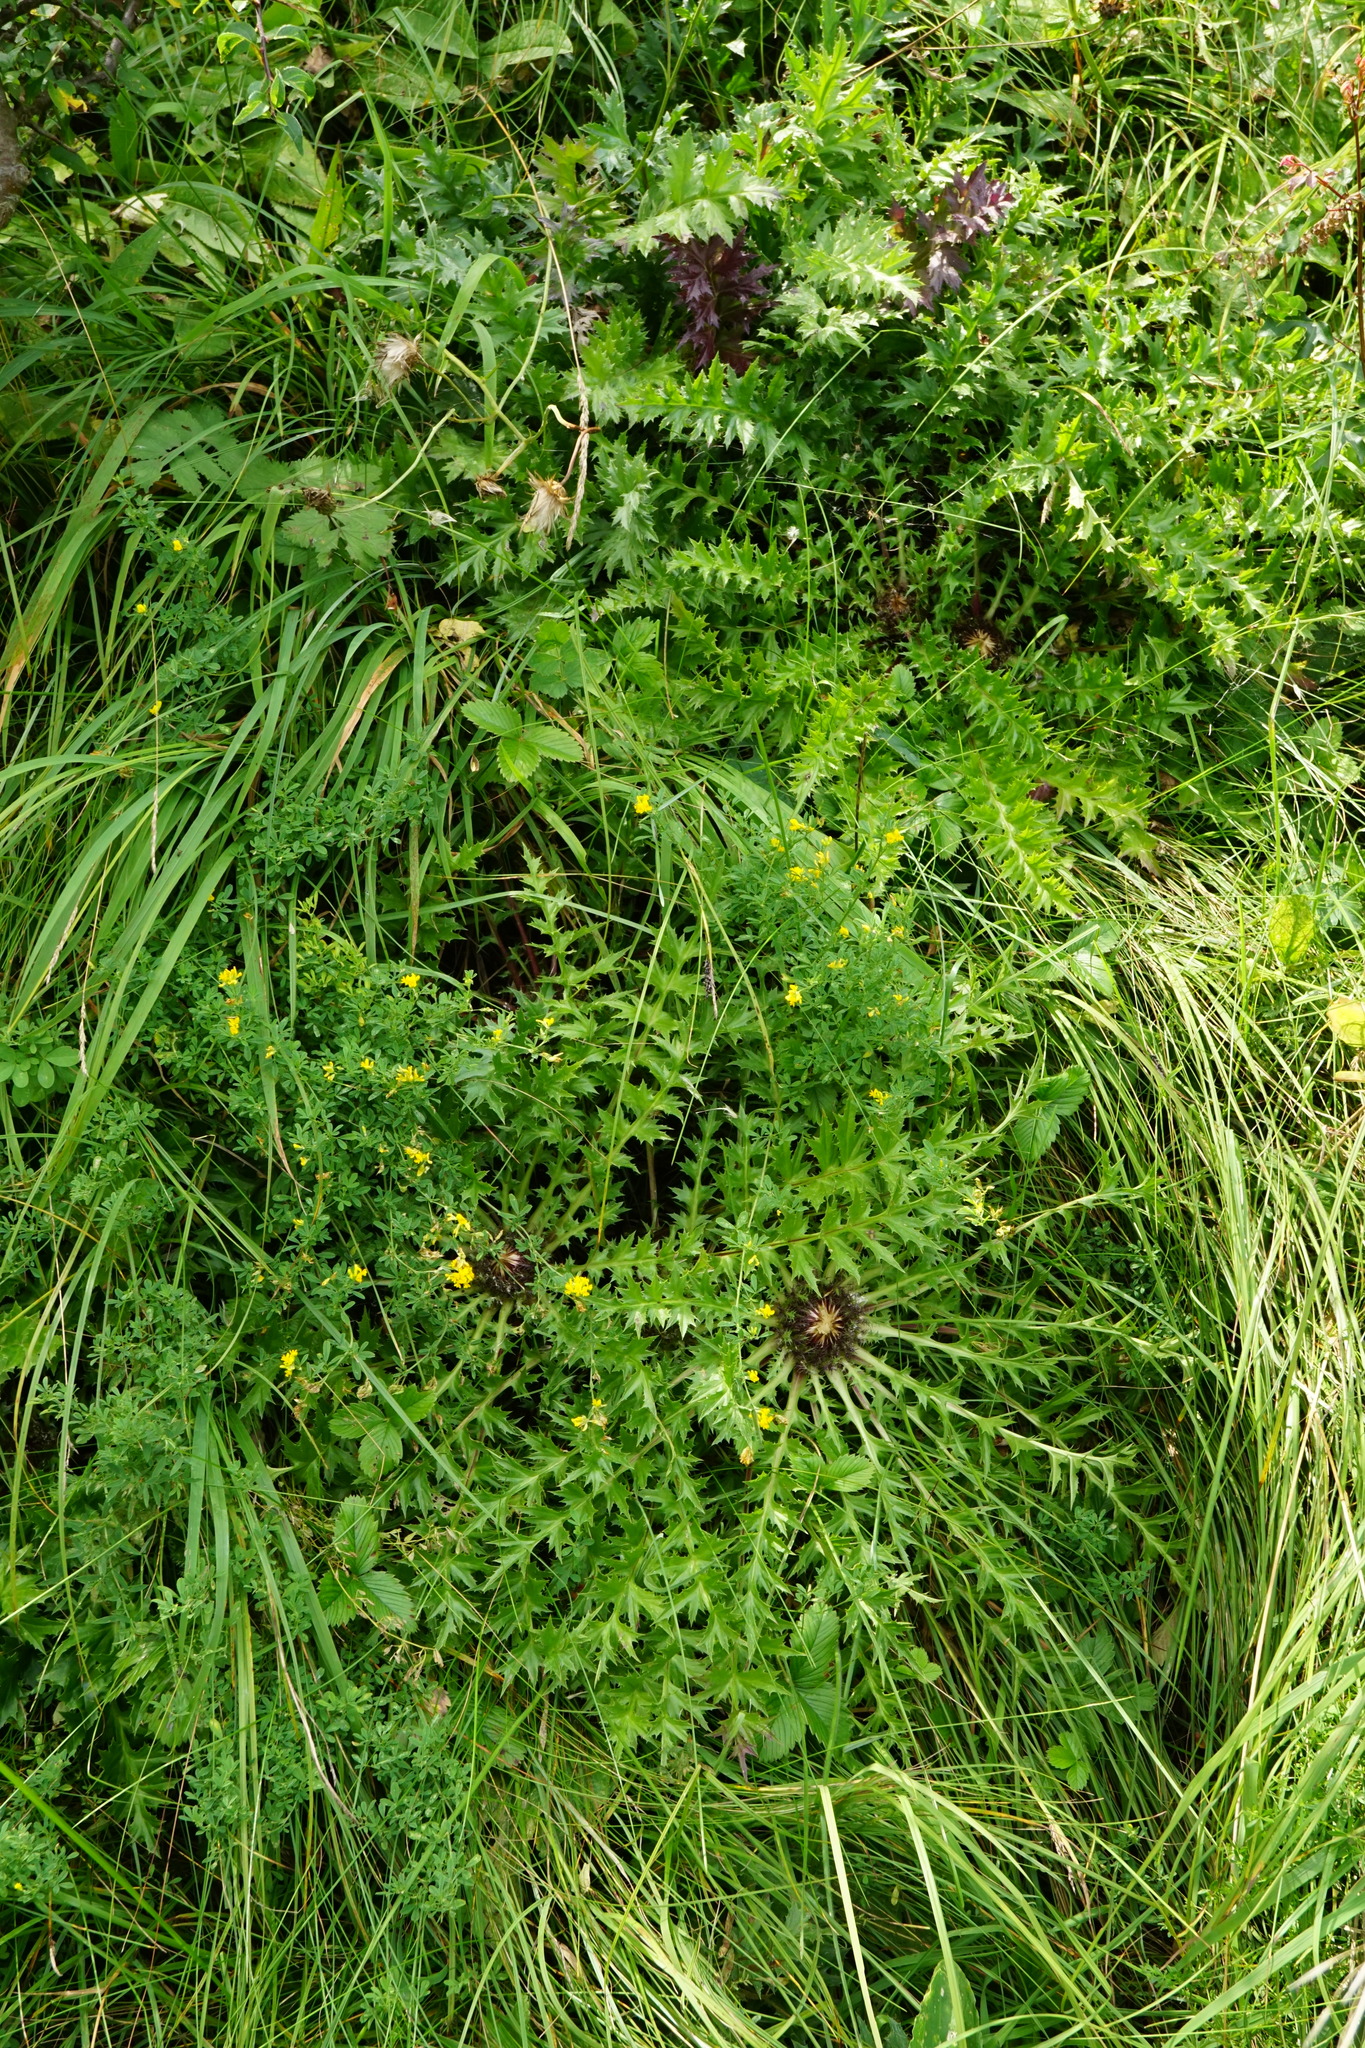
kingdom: Plantae
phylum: Tracheophyta
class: Magnoliopsida
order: Asterales
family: Asteraceae
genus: Carlina
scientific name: Carlina acaulis
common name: Stemless carline thistle
